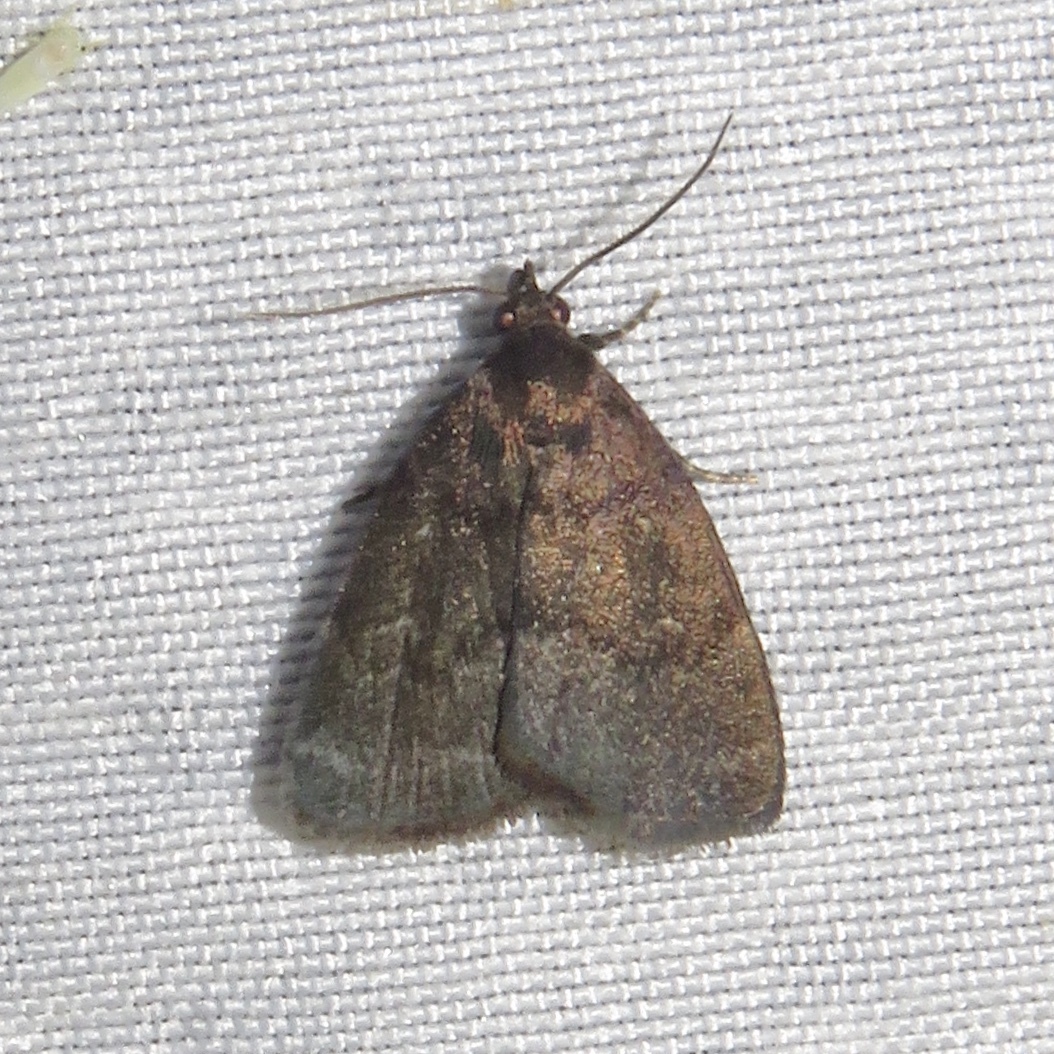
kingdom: Animalia
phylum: Arthropoda
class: Insecta
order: Lepidoptera
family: Erebidae
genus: Idia
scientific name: Idia rotundalis
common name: Rotund idia moth
